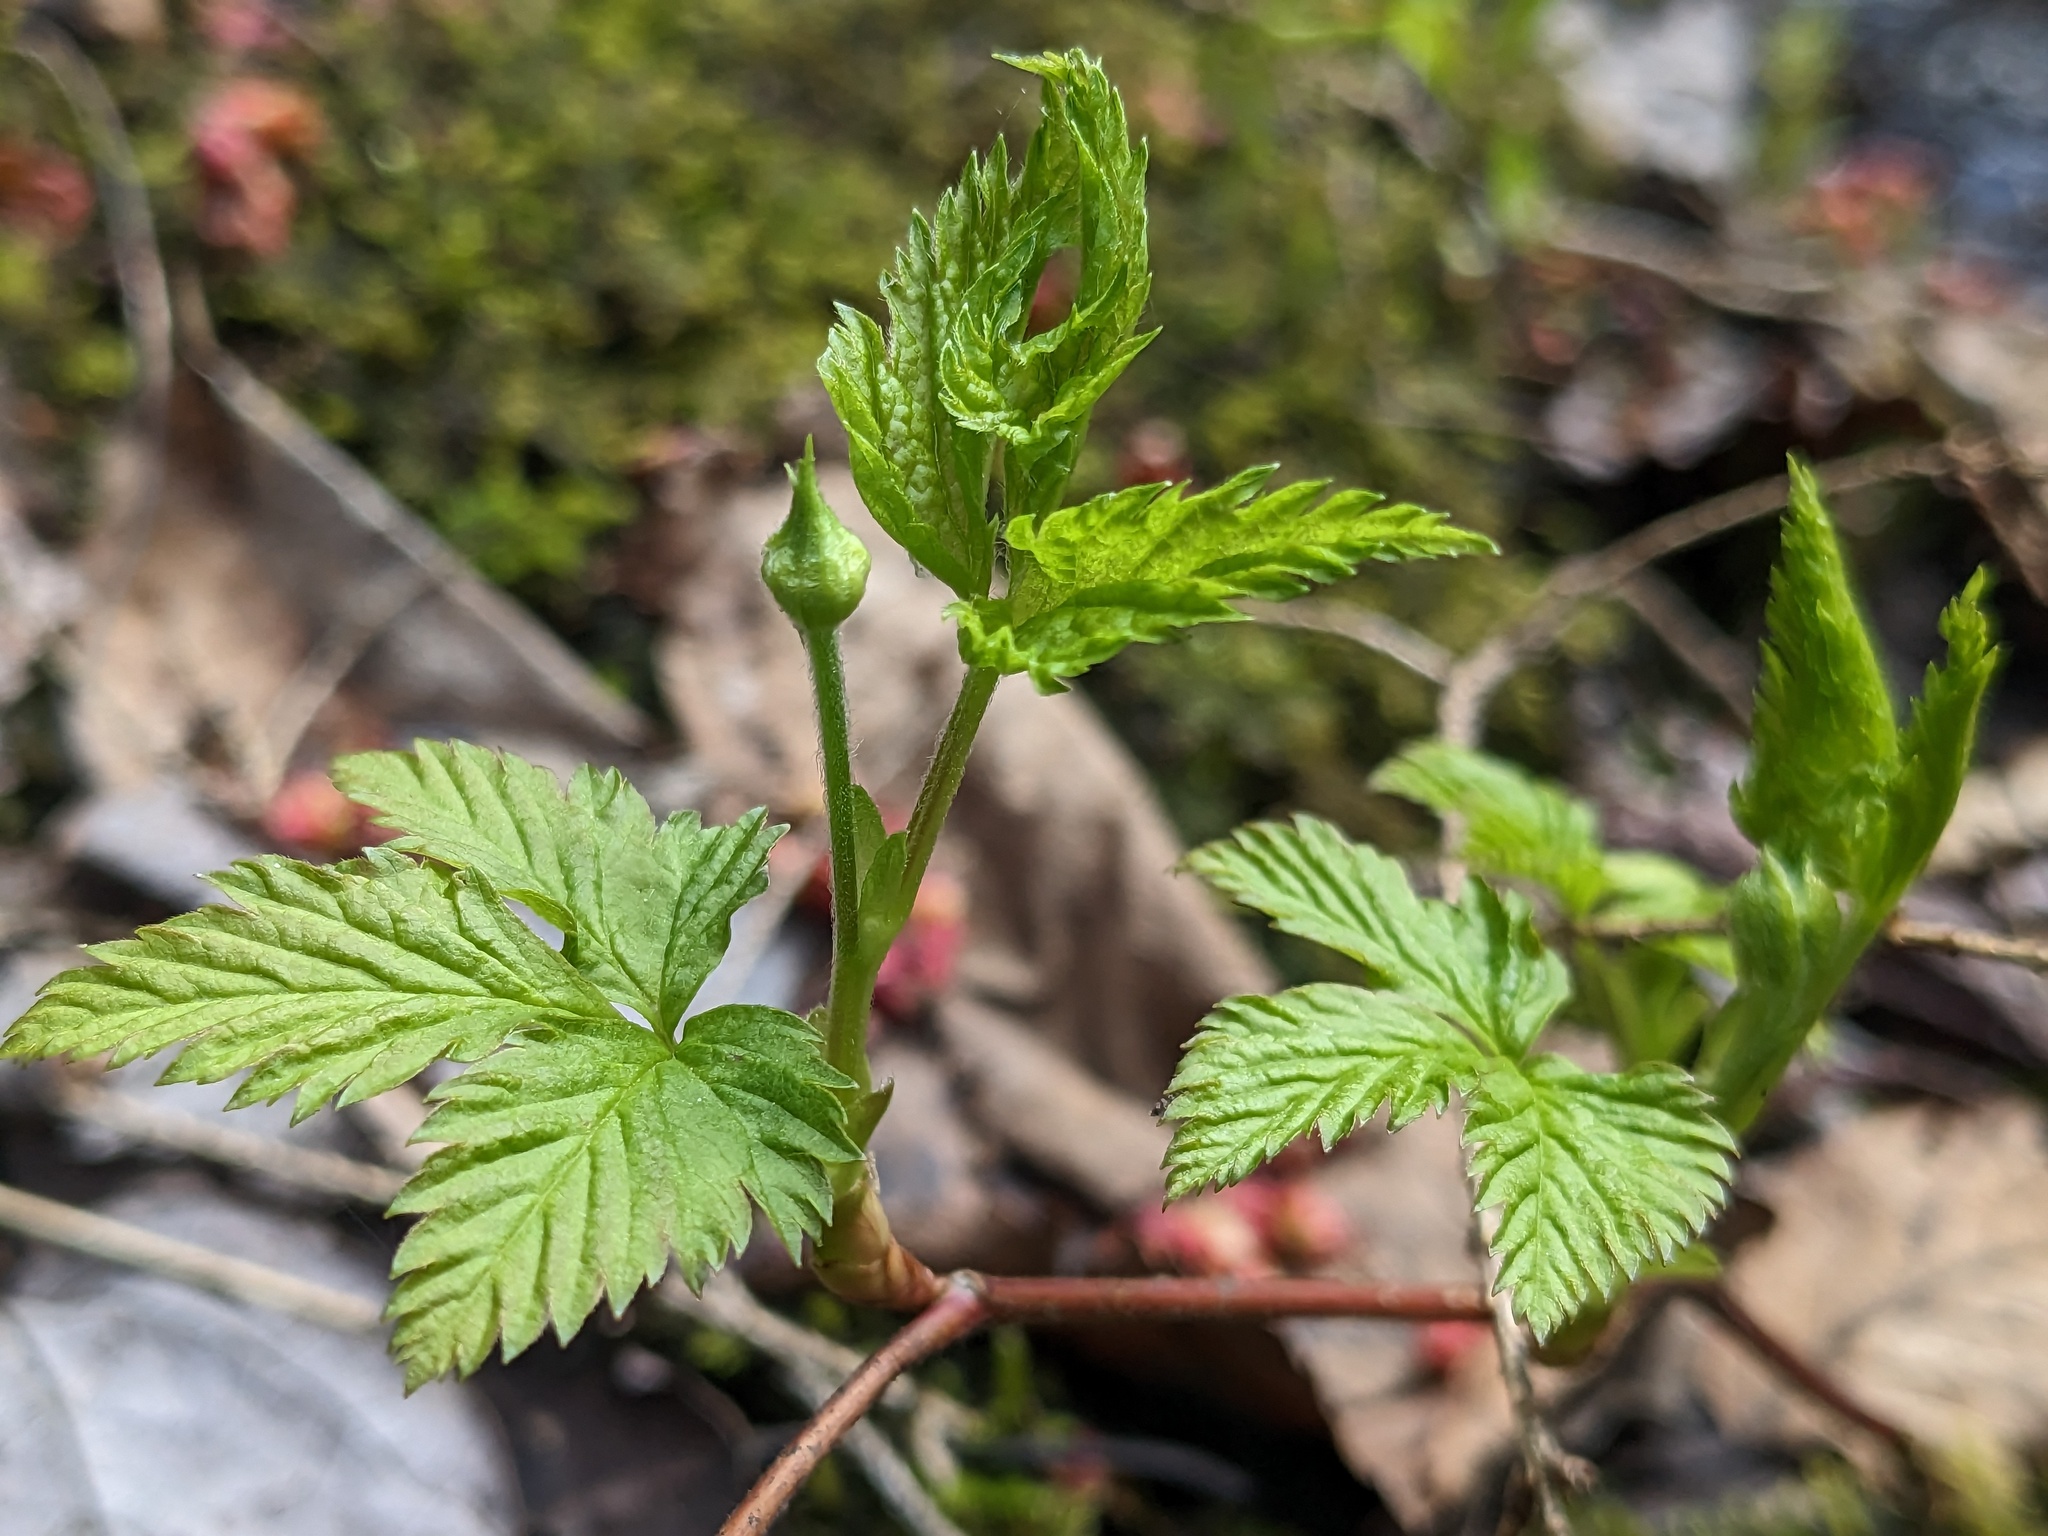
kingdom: Plantae
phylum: Tracheophyta
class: Magnoliopsida
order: Rosales
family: Rosaceae
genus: Rubus
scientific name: Rubus pubescens
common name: Dwarf raspberry
